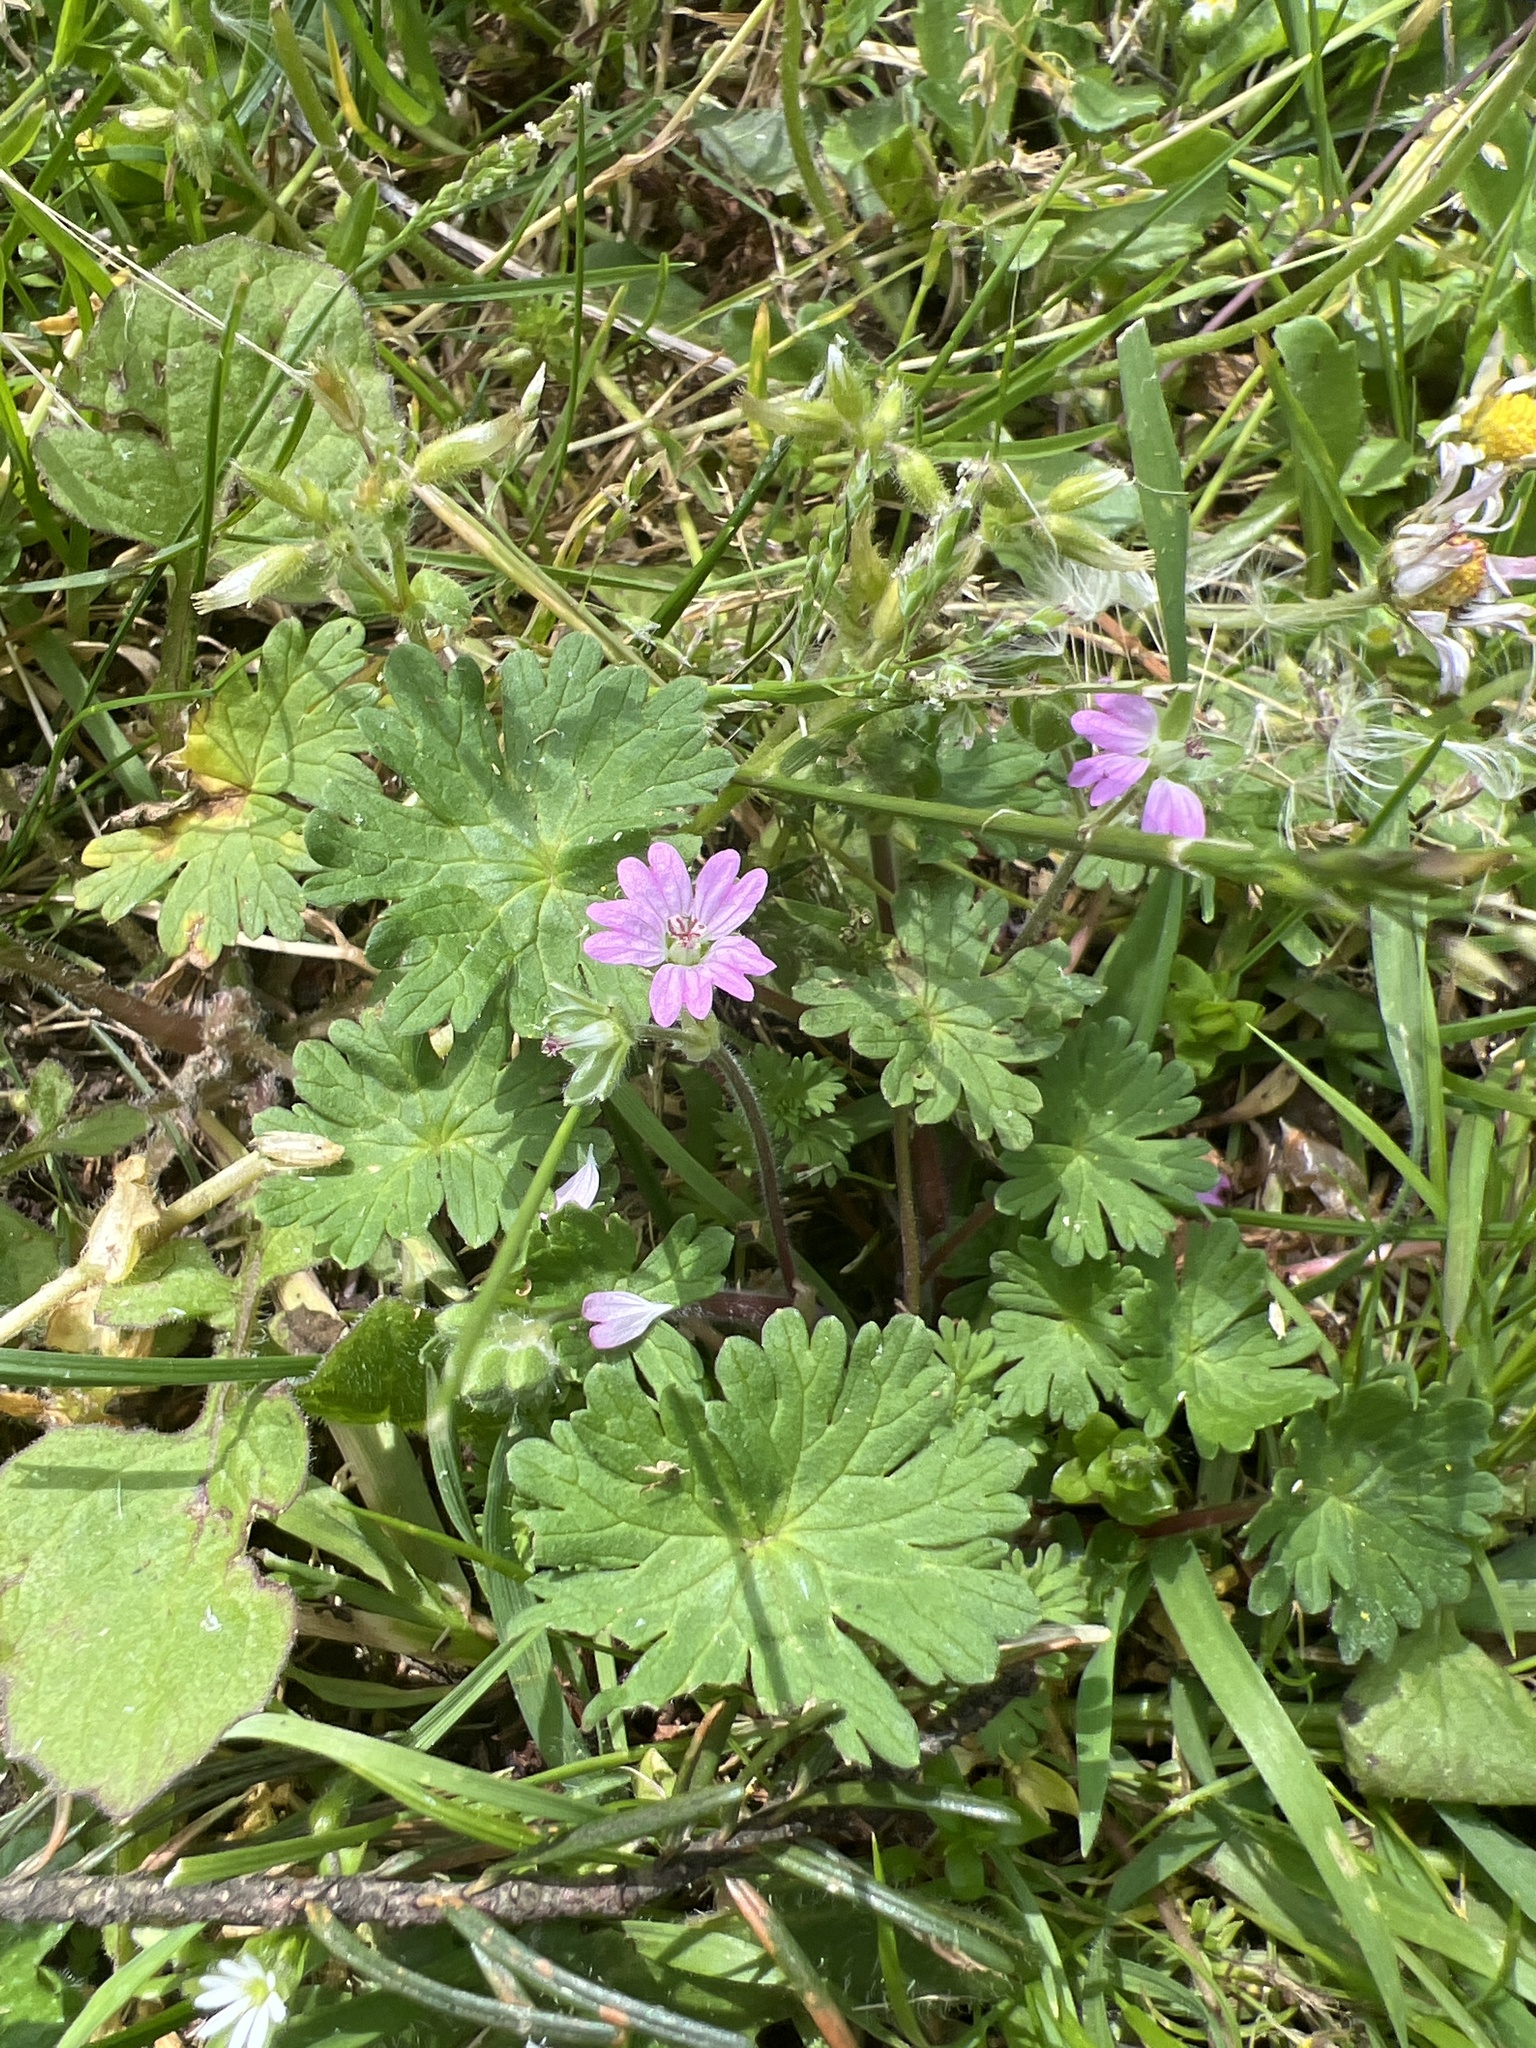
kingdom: Plantae
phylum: Tracheophyta
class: Magnoliopsida
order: Geraniales
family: Geraniaceae
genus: Geranium
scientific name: Geranium molle
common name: Dove's-foot crane's-bill
